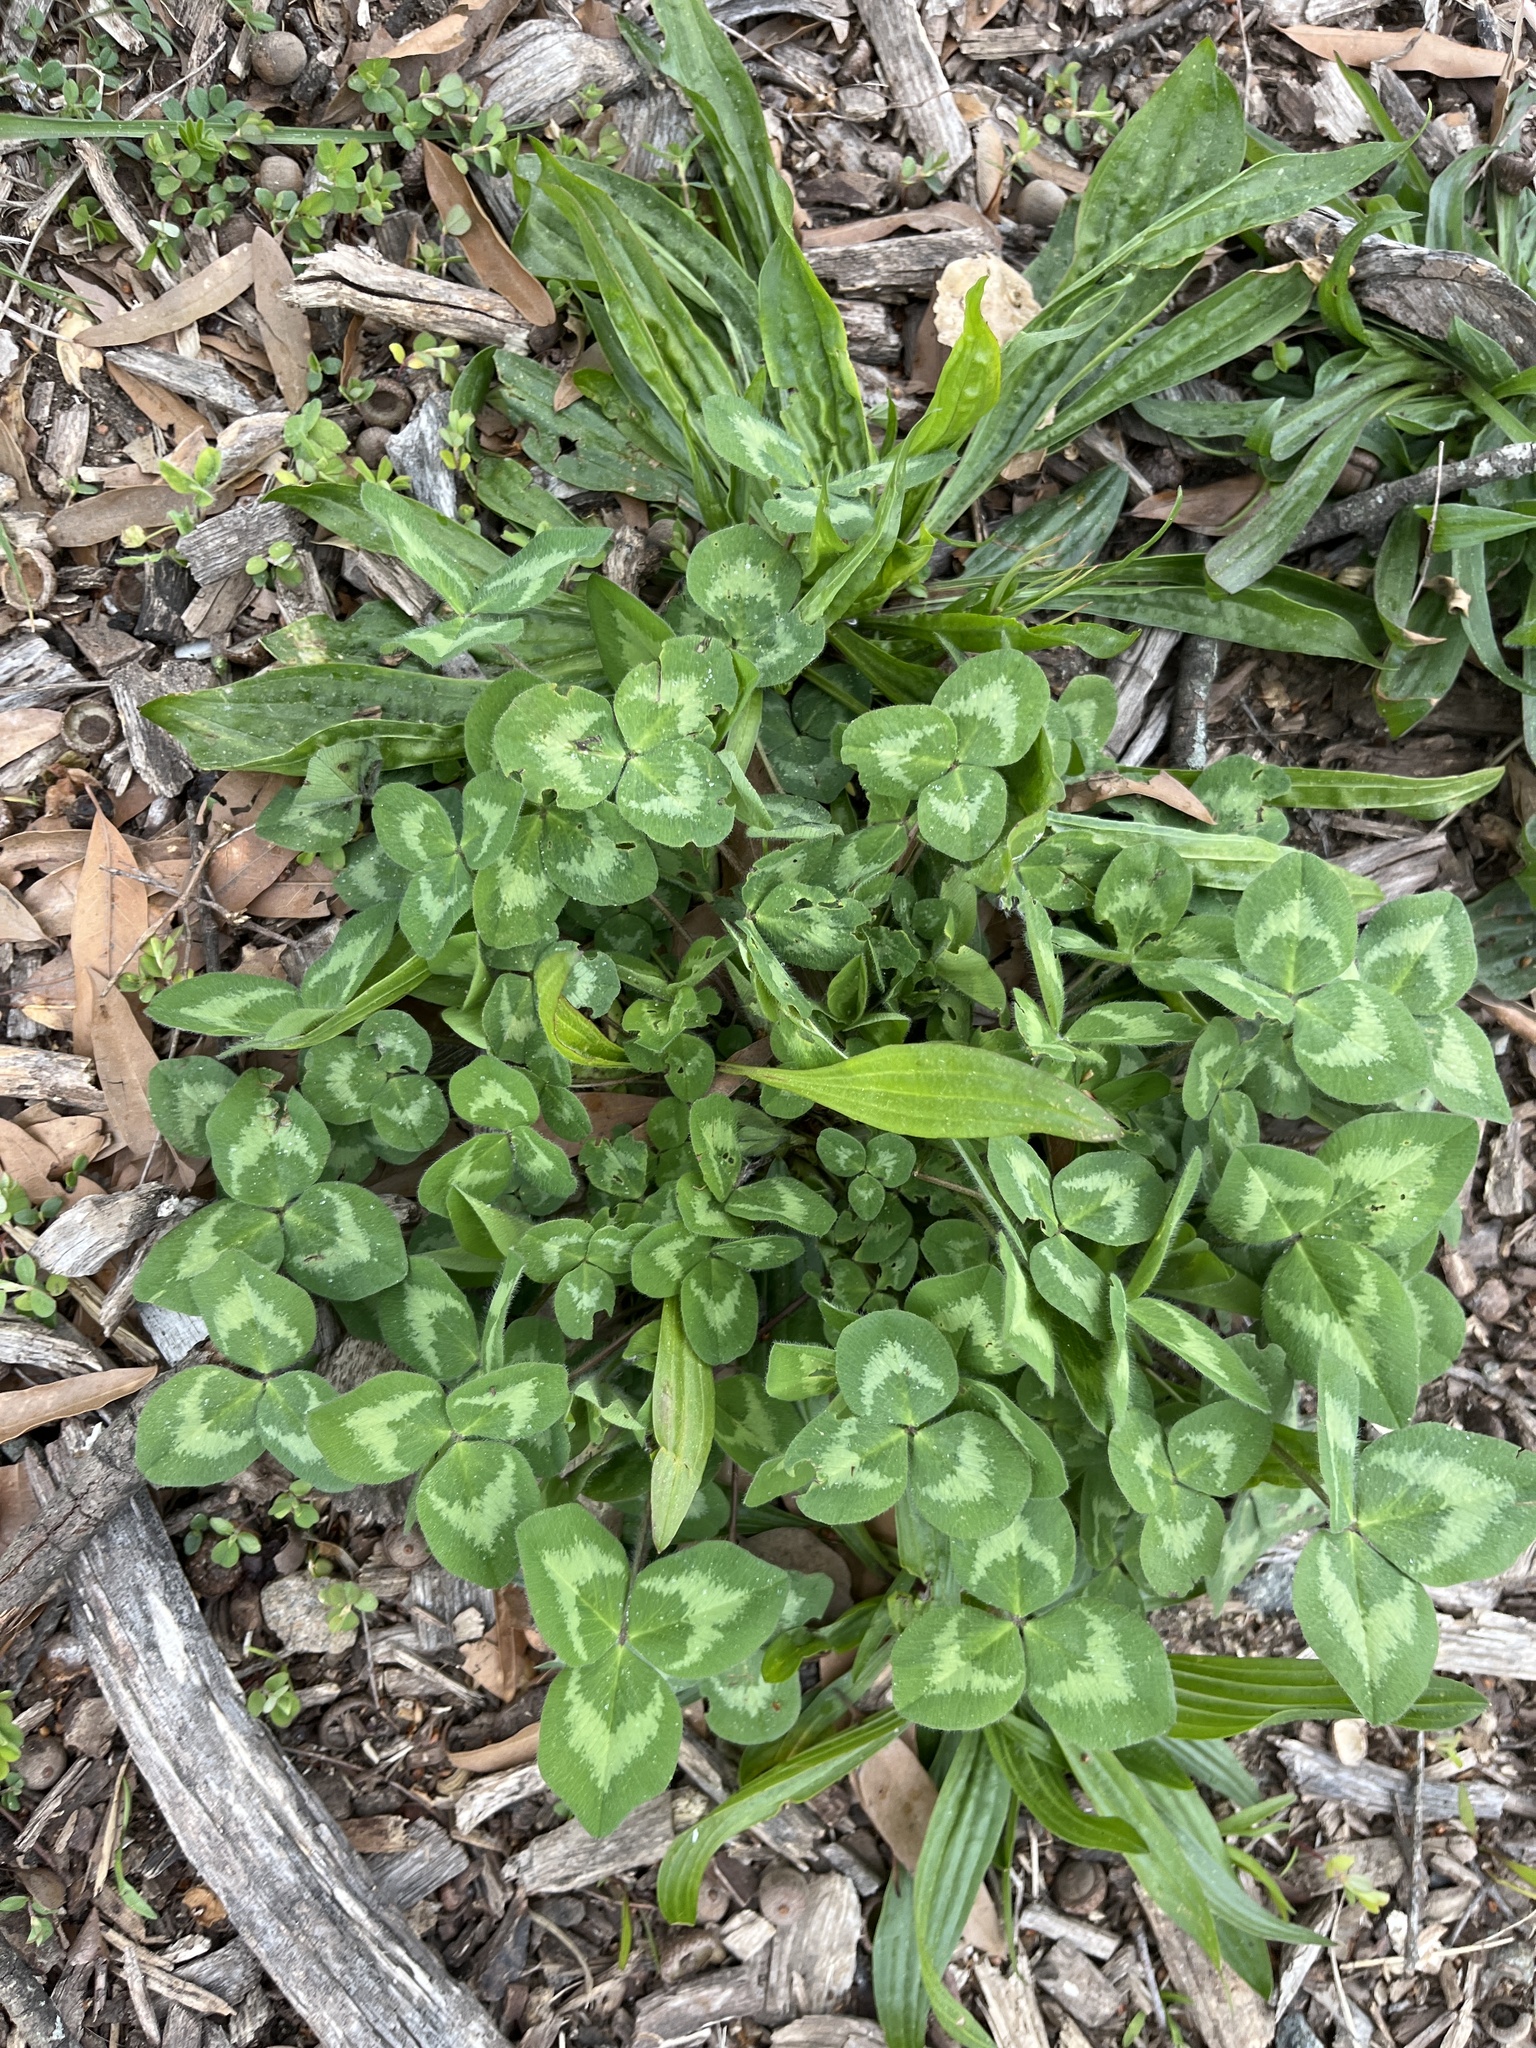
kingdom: Plantae
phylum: Tracheophyta
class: Magnoliopsida
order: Fabales
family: Fabaceae
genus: Trifolium
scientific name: Trifolium pratense
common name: Red clover
